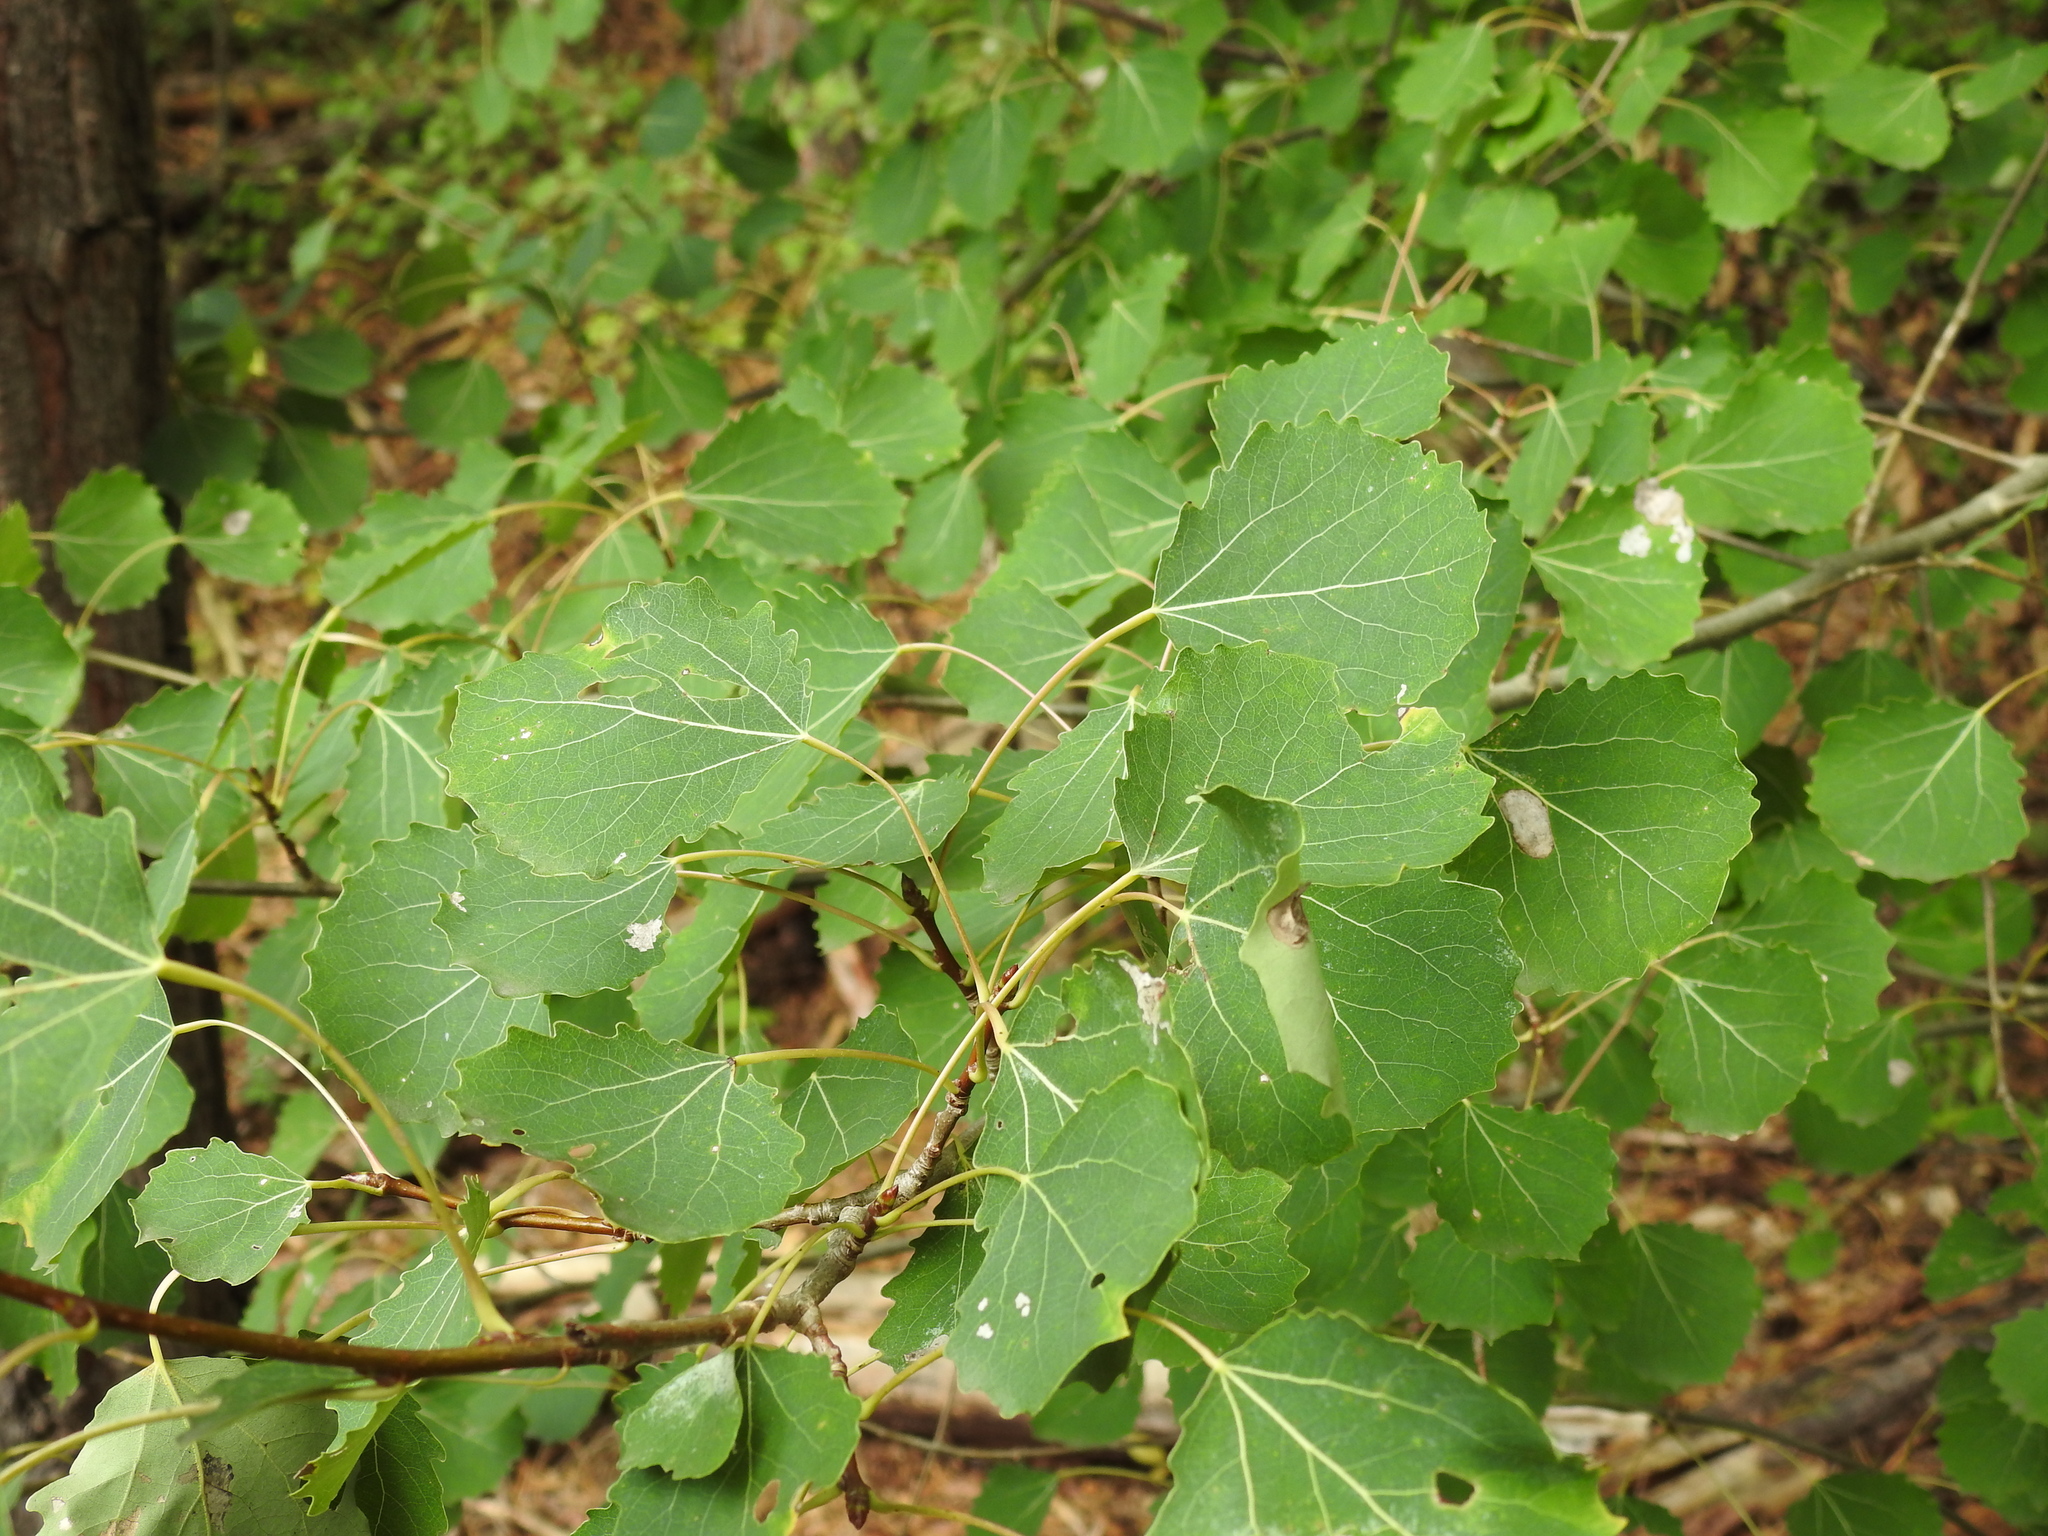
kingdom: Plantae
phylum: Tracheophyta
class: Magnoliopsida
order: Malpighiales
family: Salicaceae
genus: Populus
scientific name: Populus tremula
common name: European aspen
